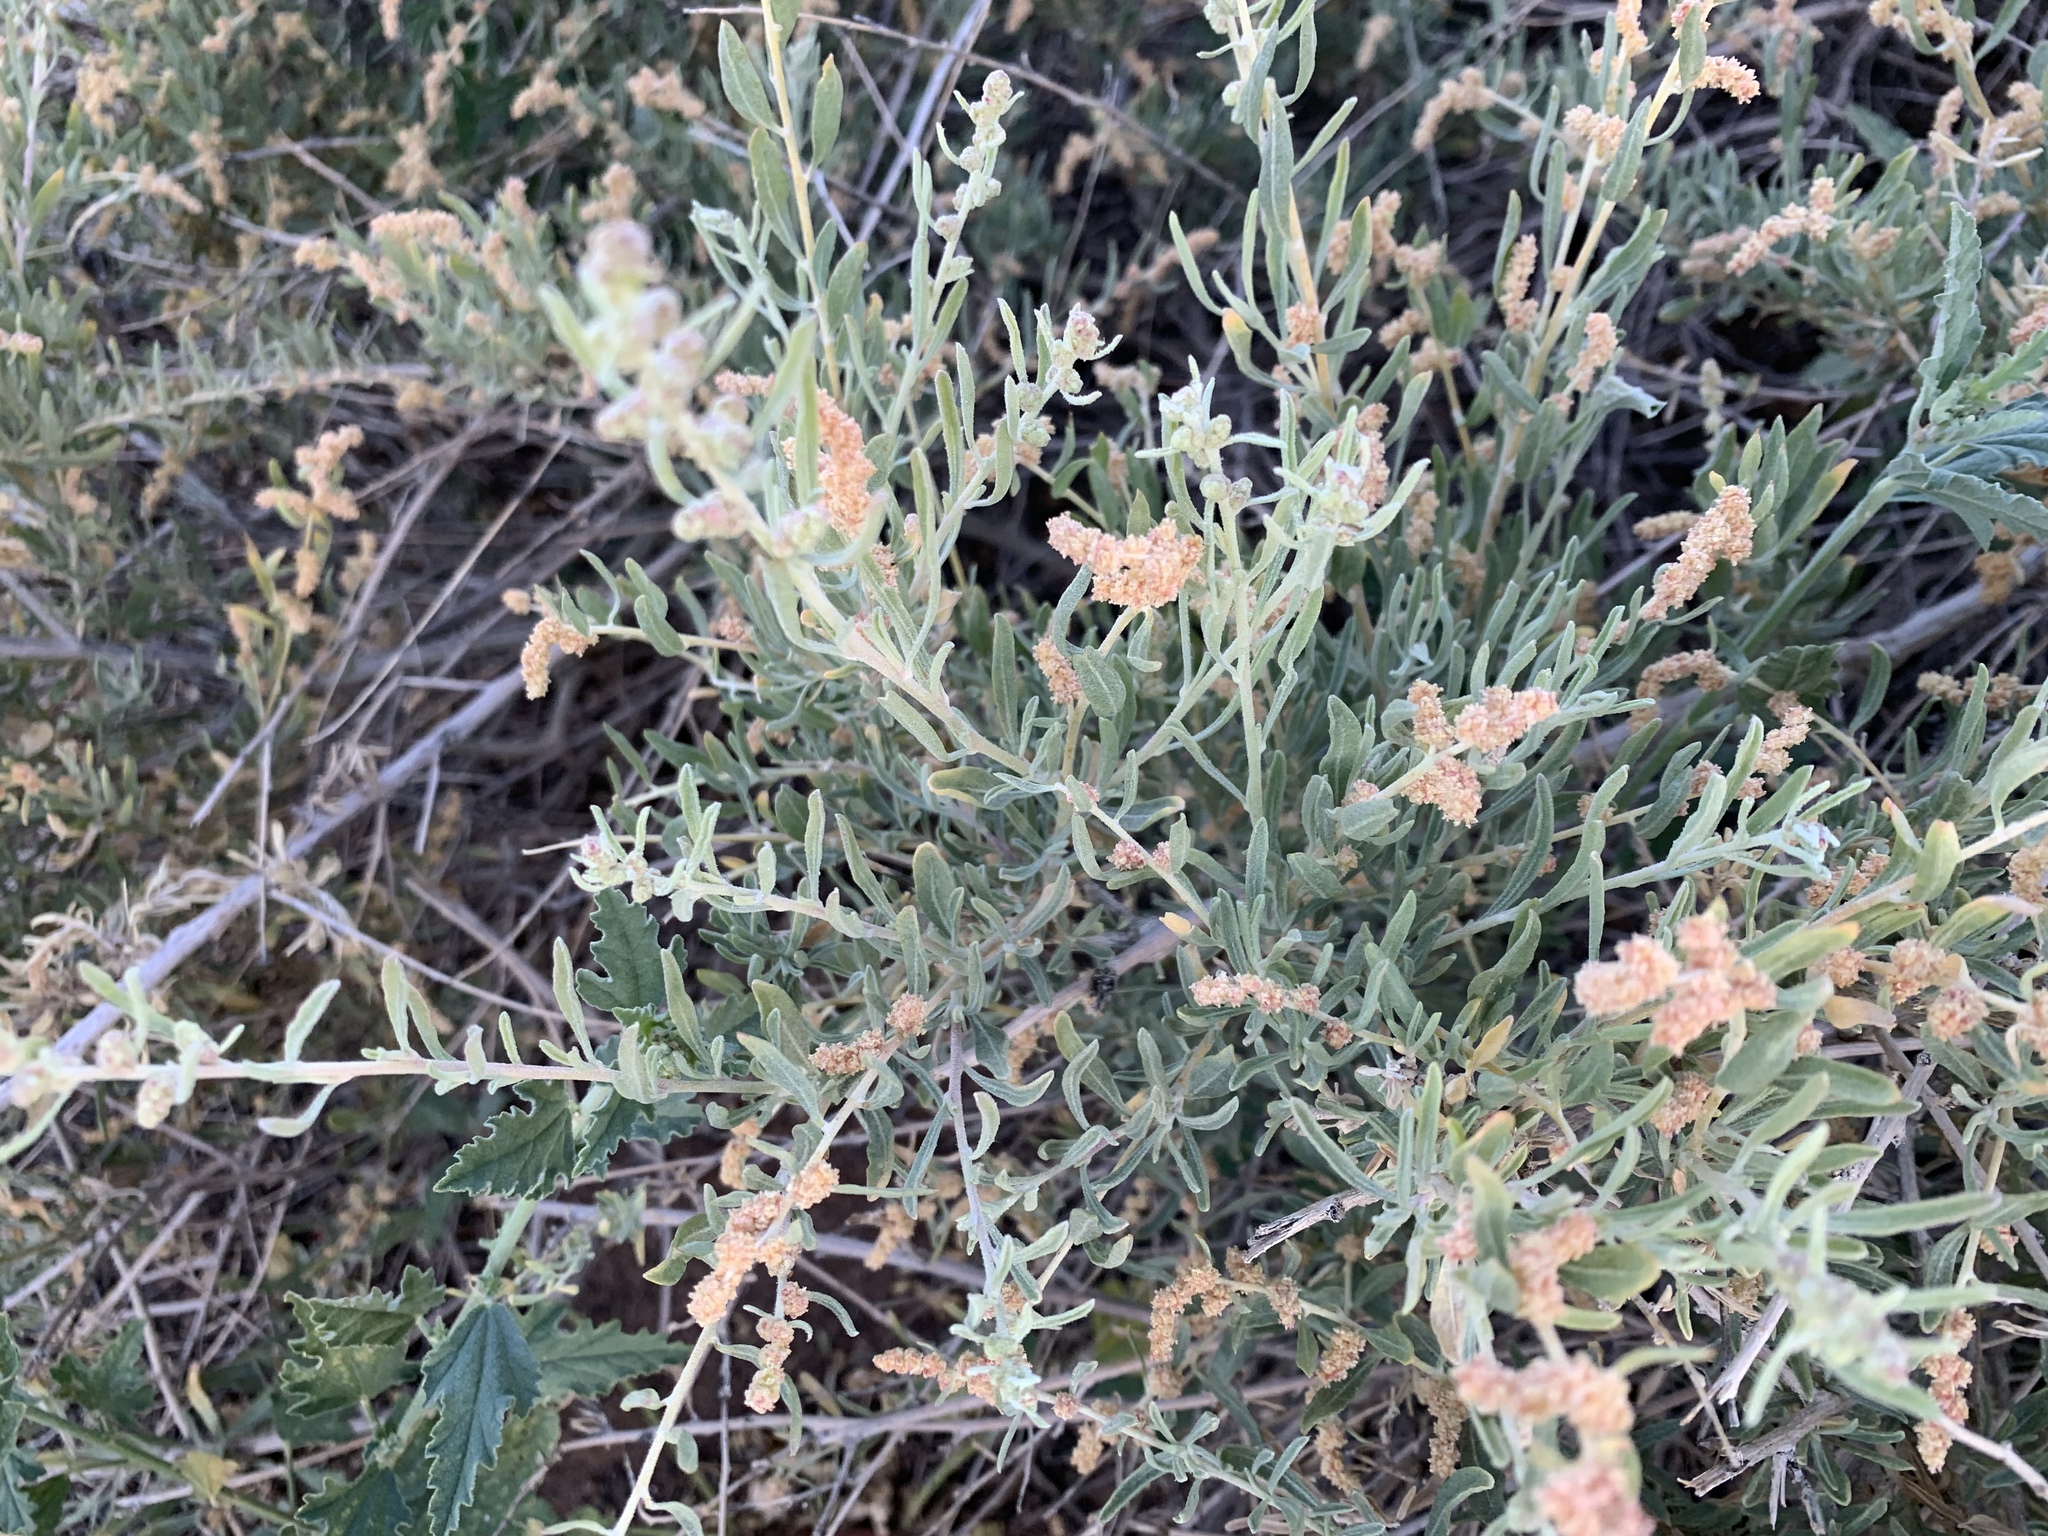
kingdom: Plantae
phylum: Tracheophyta
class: Magnoliopsida
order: Caryophyllales
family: Amaranthaceae
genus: Atriplex
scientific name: Atriplex canescens
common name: Four-wing saltbush
